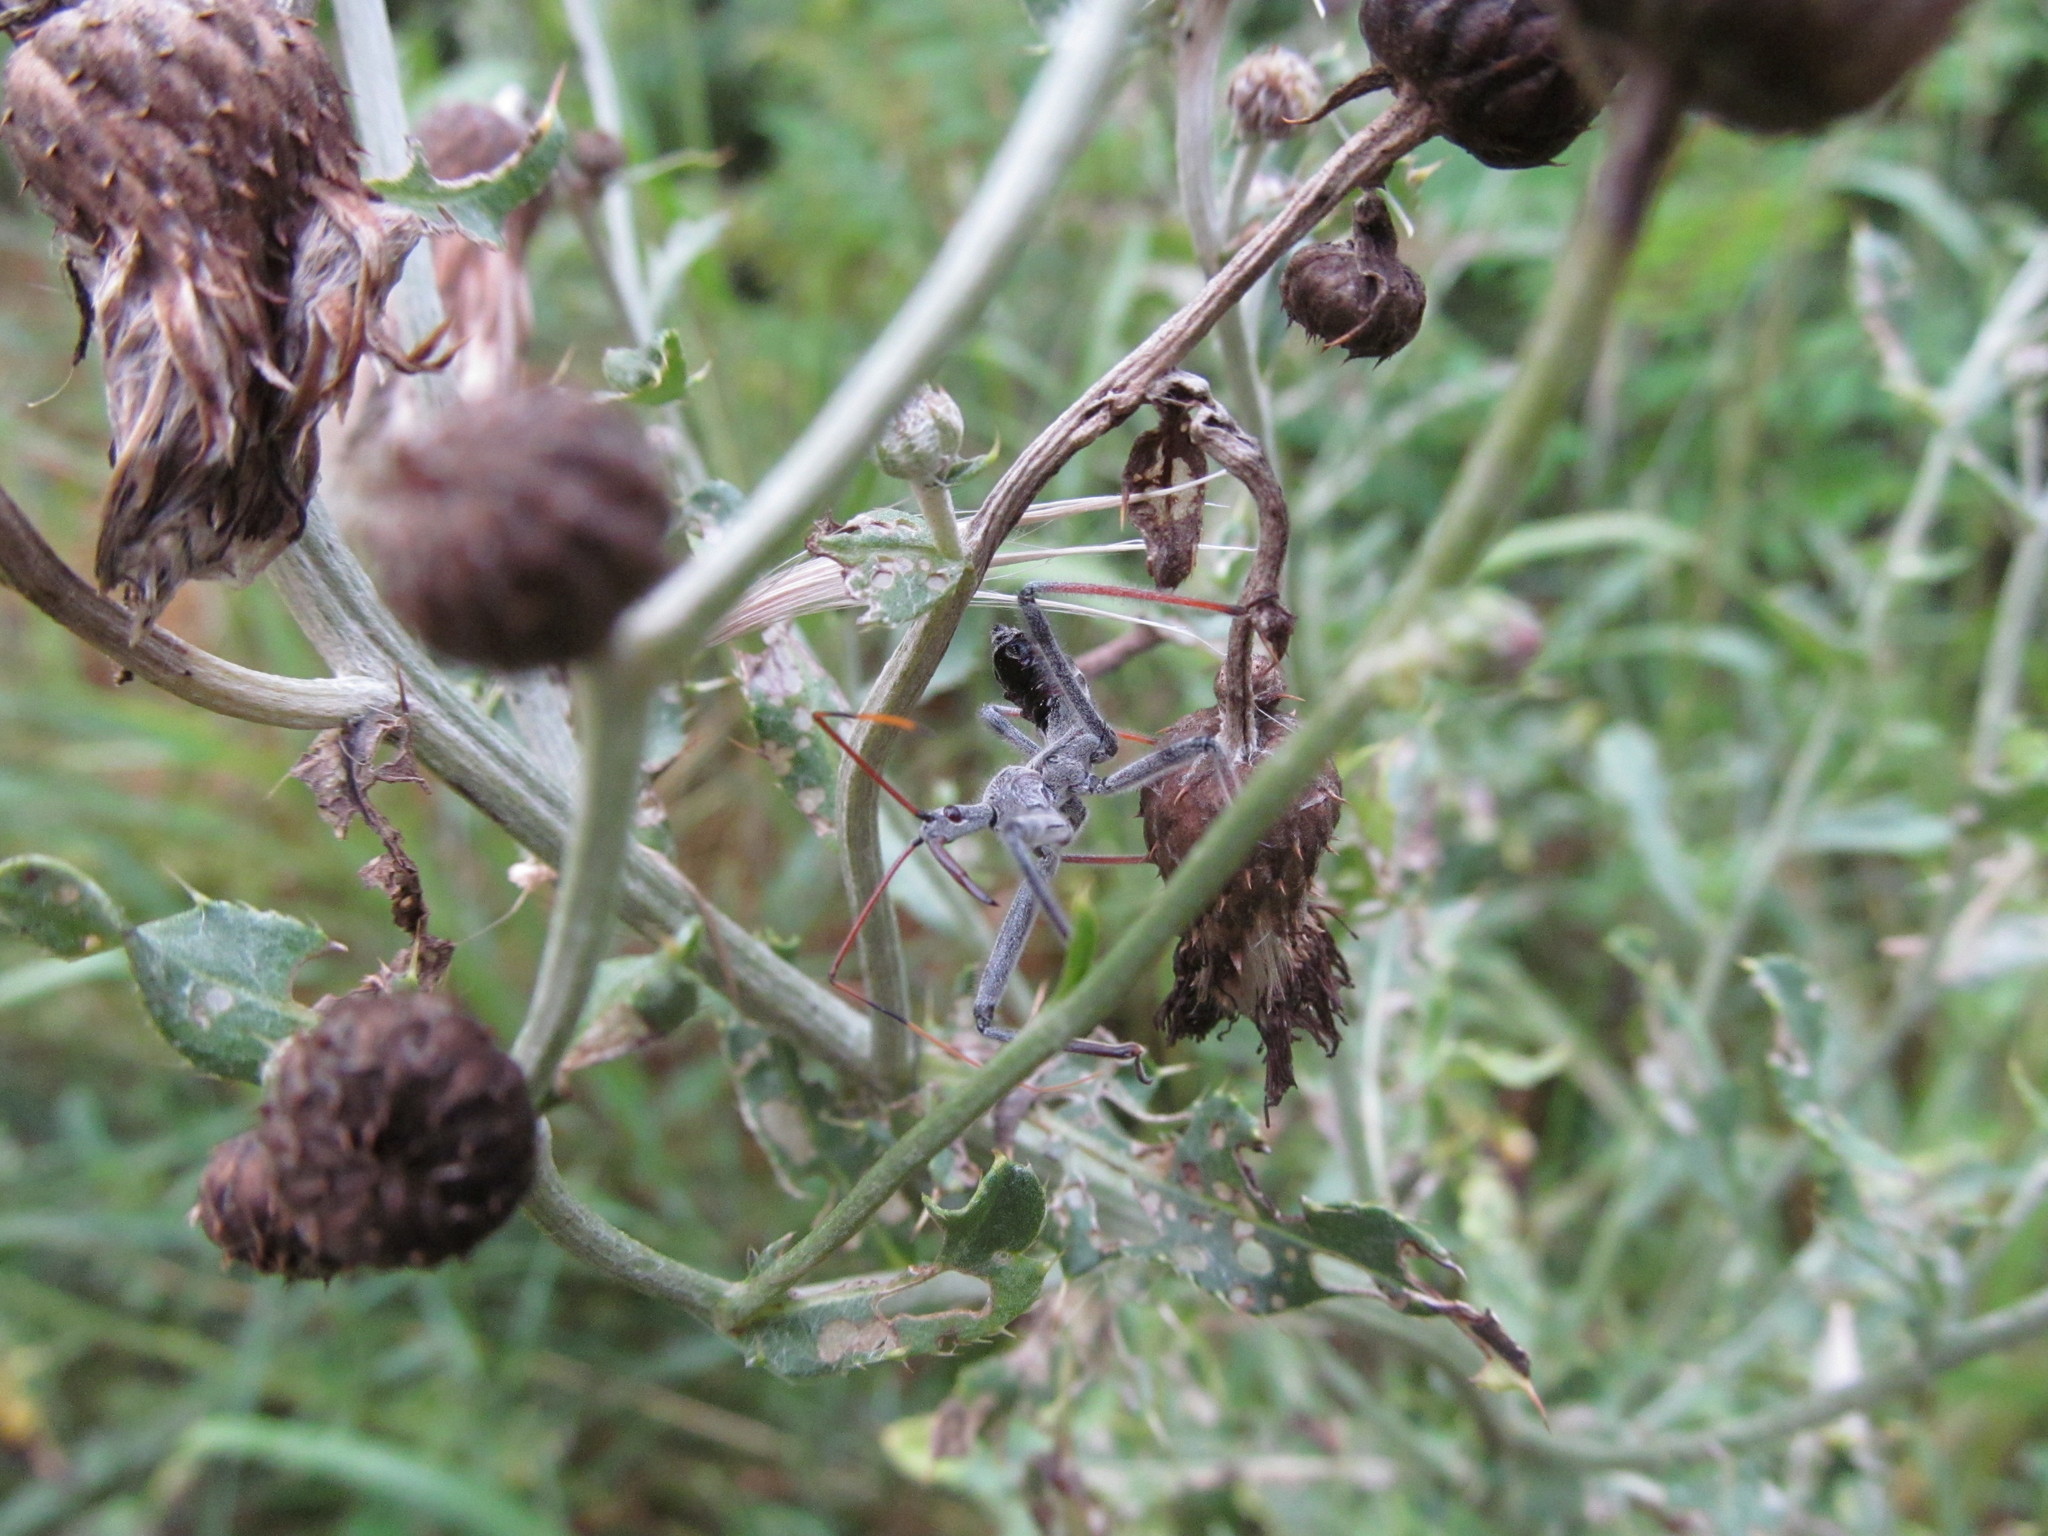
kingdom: Animalia
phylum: Arthropoda
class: Insecta
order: Hemiptera
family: Reduviidae
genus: Arilus
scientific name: Arilus cristatus
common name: North american wheel bug
